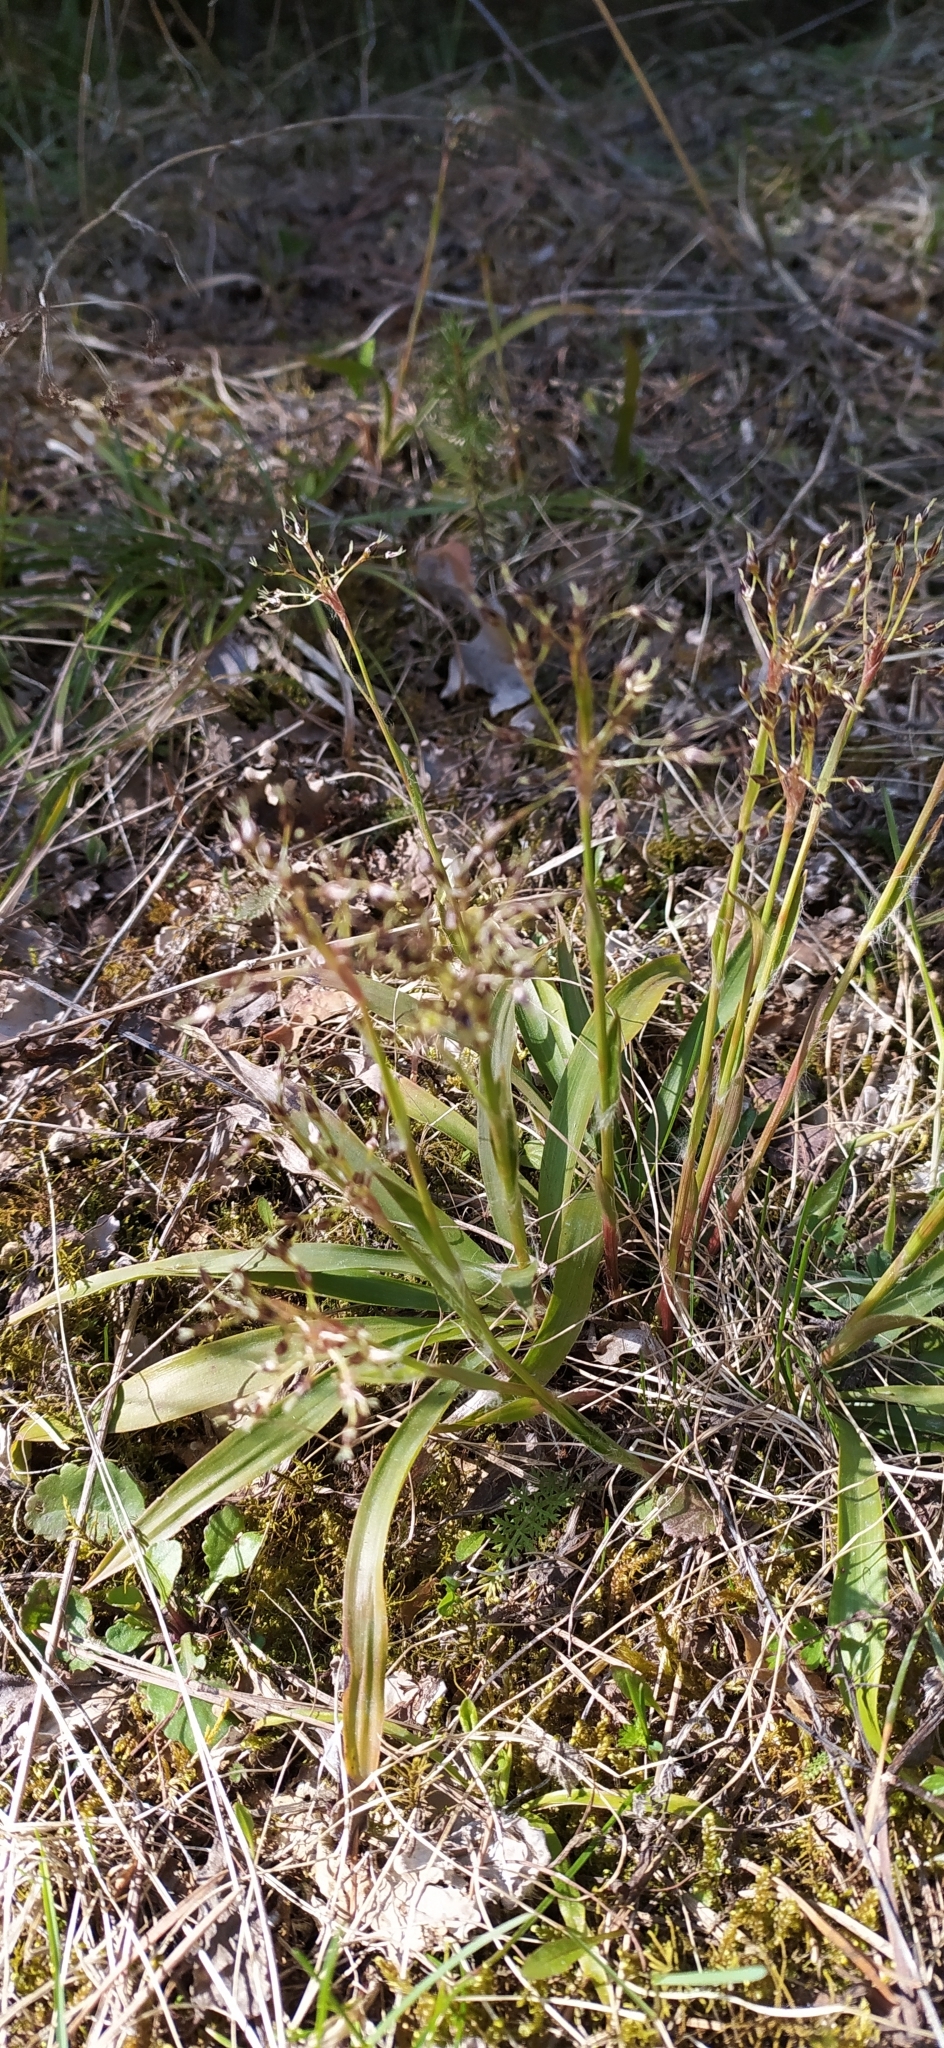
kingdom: Plantae
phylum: Tracheophyta
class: Liliopsida
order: Poales
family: Juncaceae
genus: Luzula
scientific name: Luzula pilosa
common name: Hairy wood-rush
